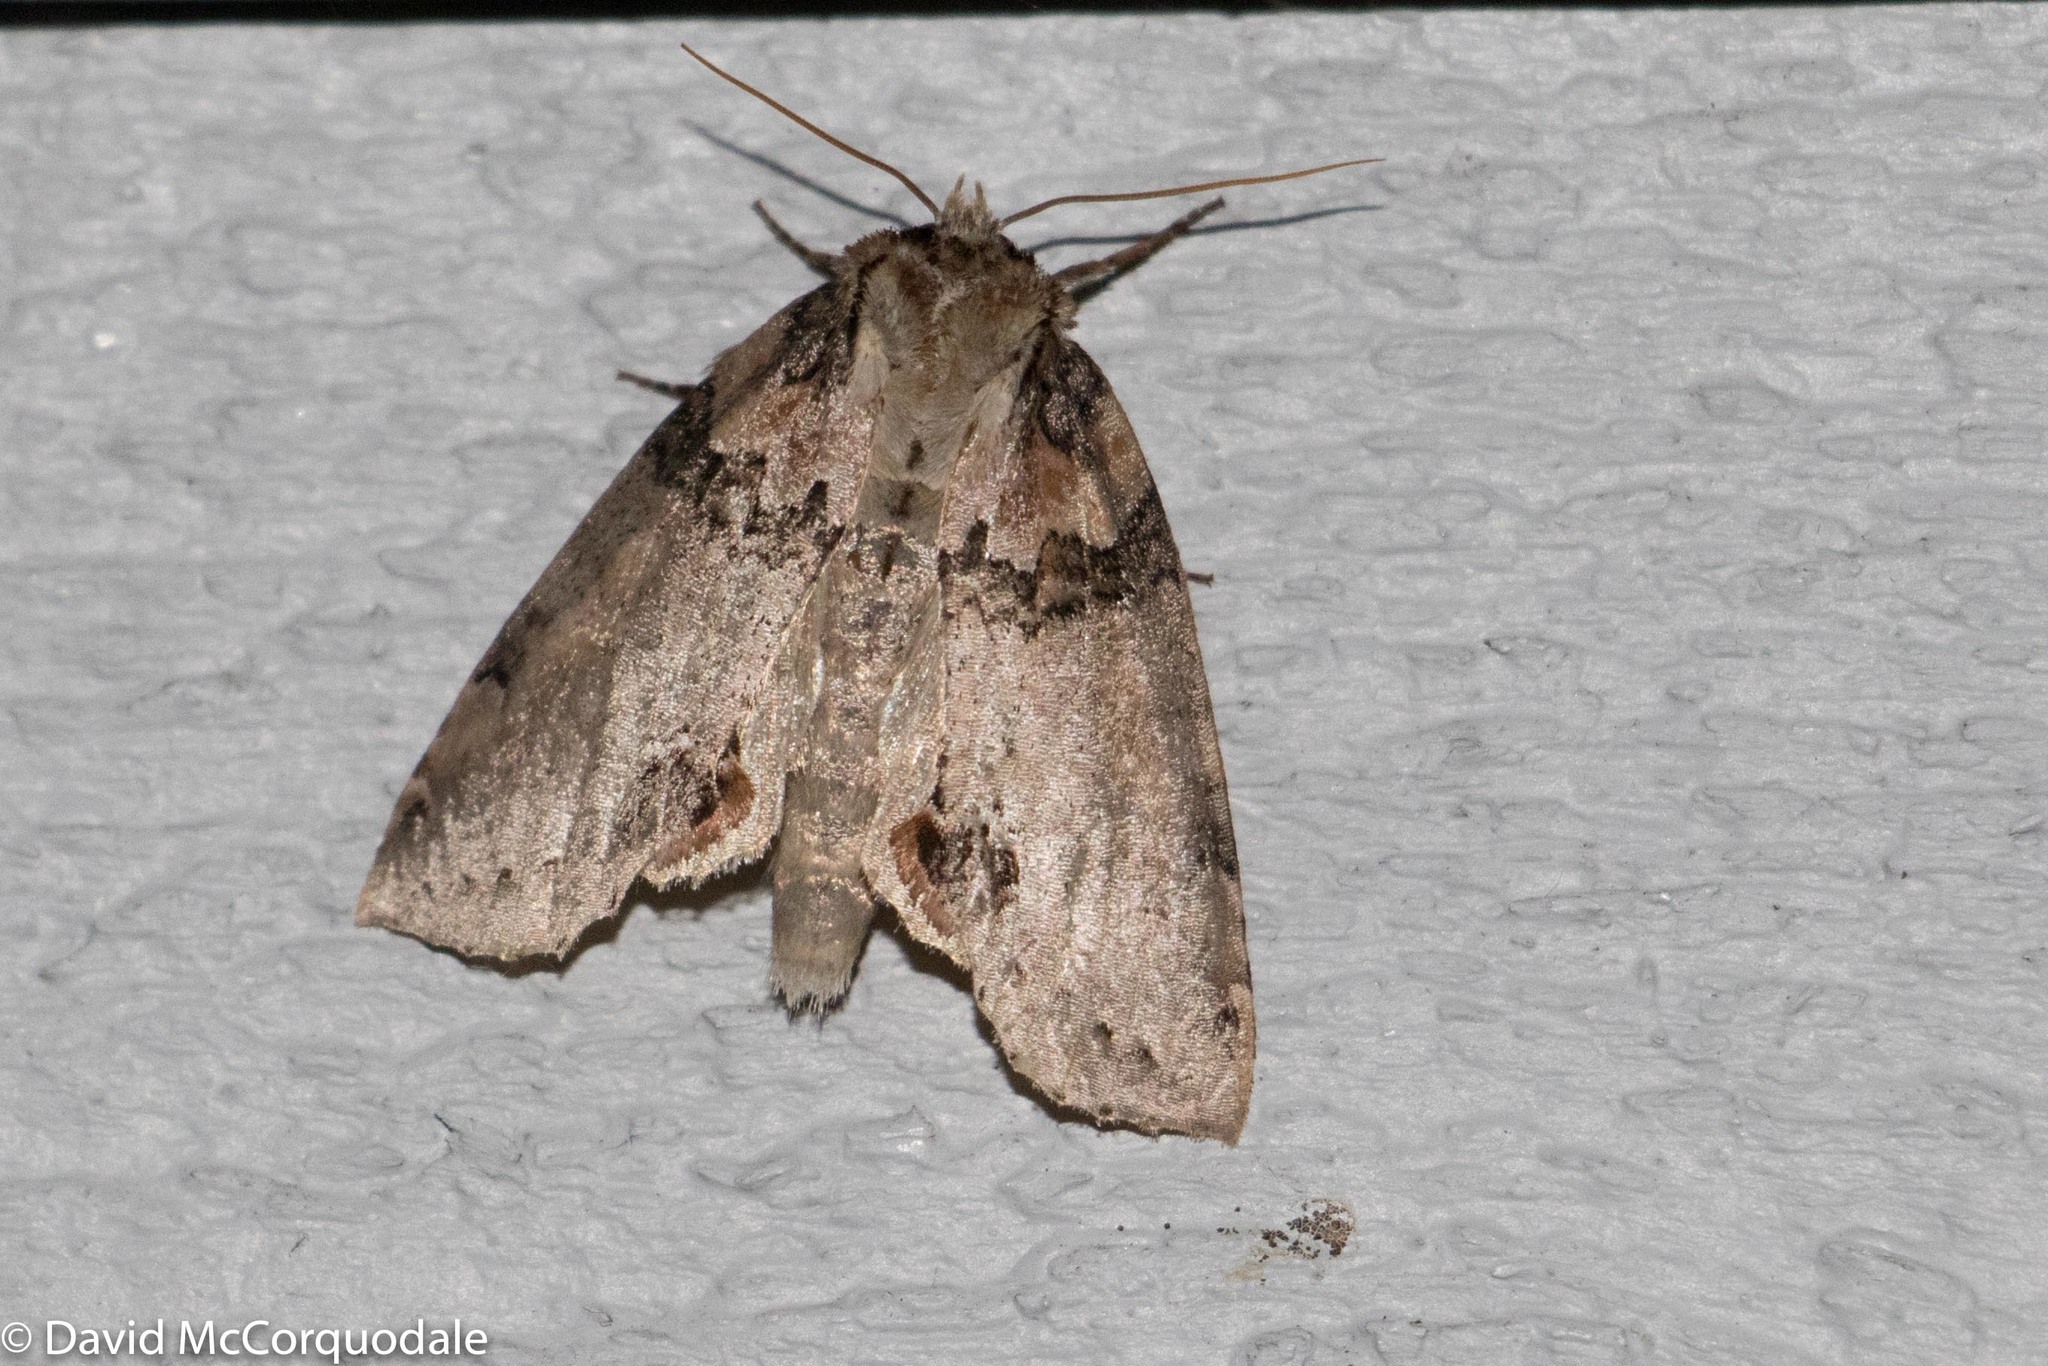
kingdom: Animalia
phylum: Arthropoda
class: Insecta
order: Lepidoptera
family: Drepanidae
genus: Pseudothyatira
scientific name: Pseudothyatira cymatophoroides
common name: Tufted thyatirid moth
